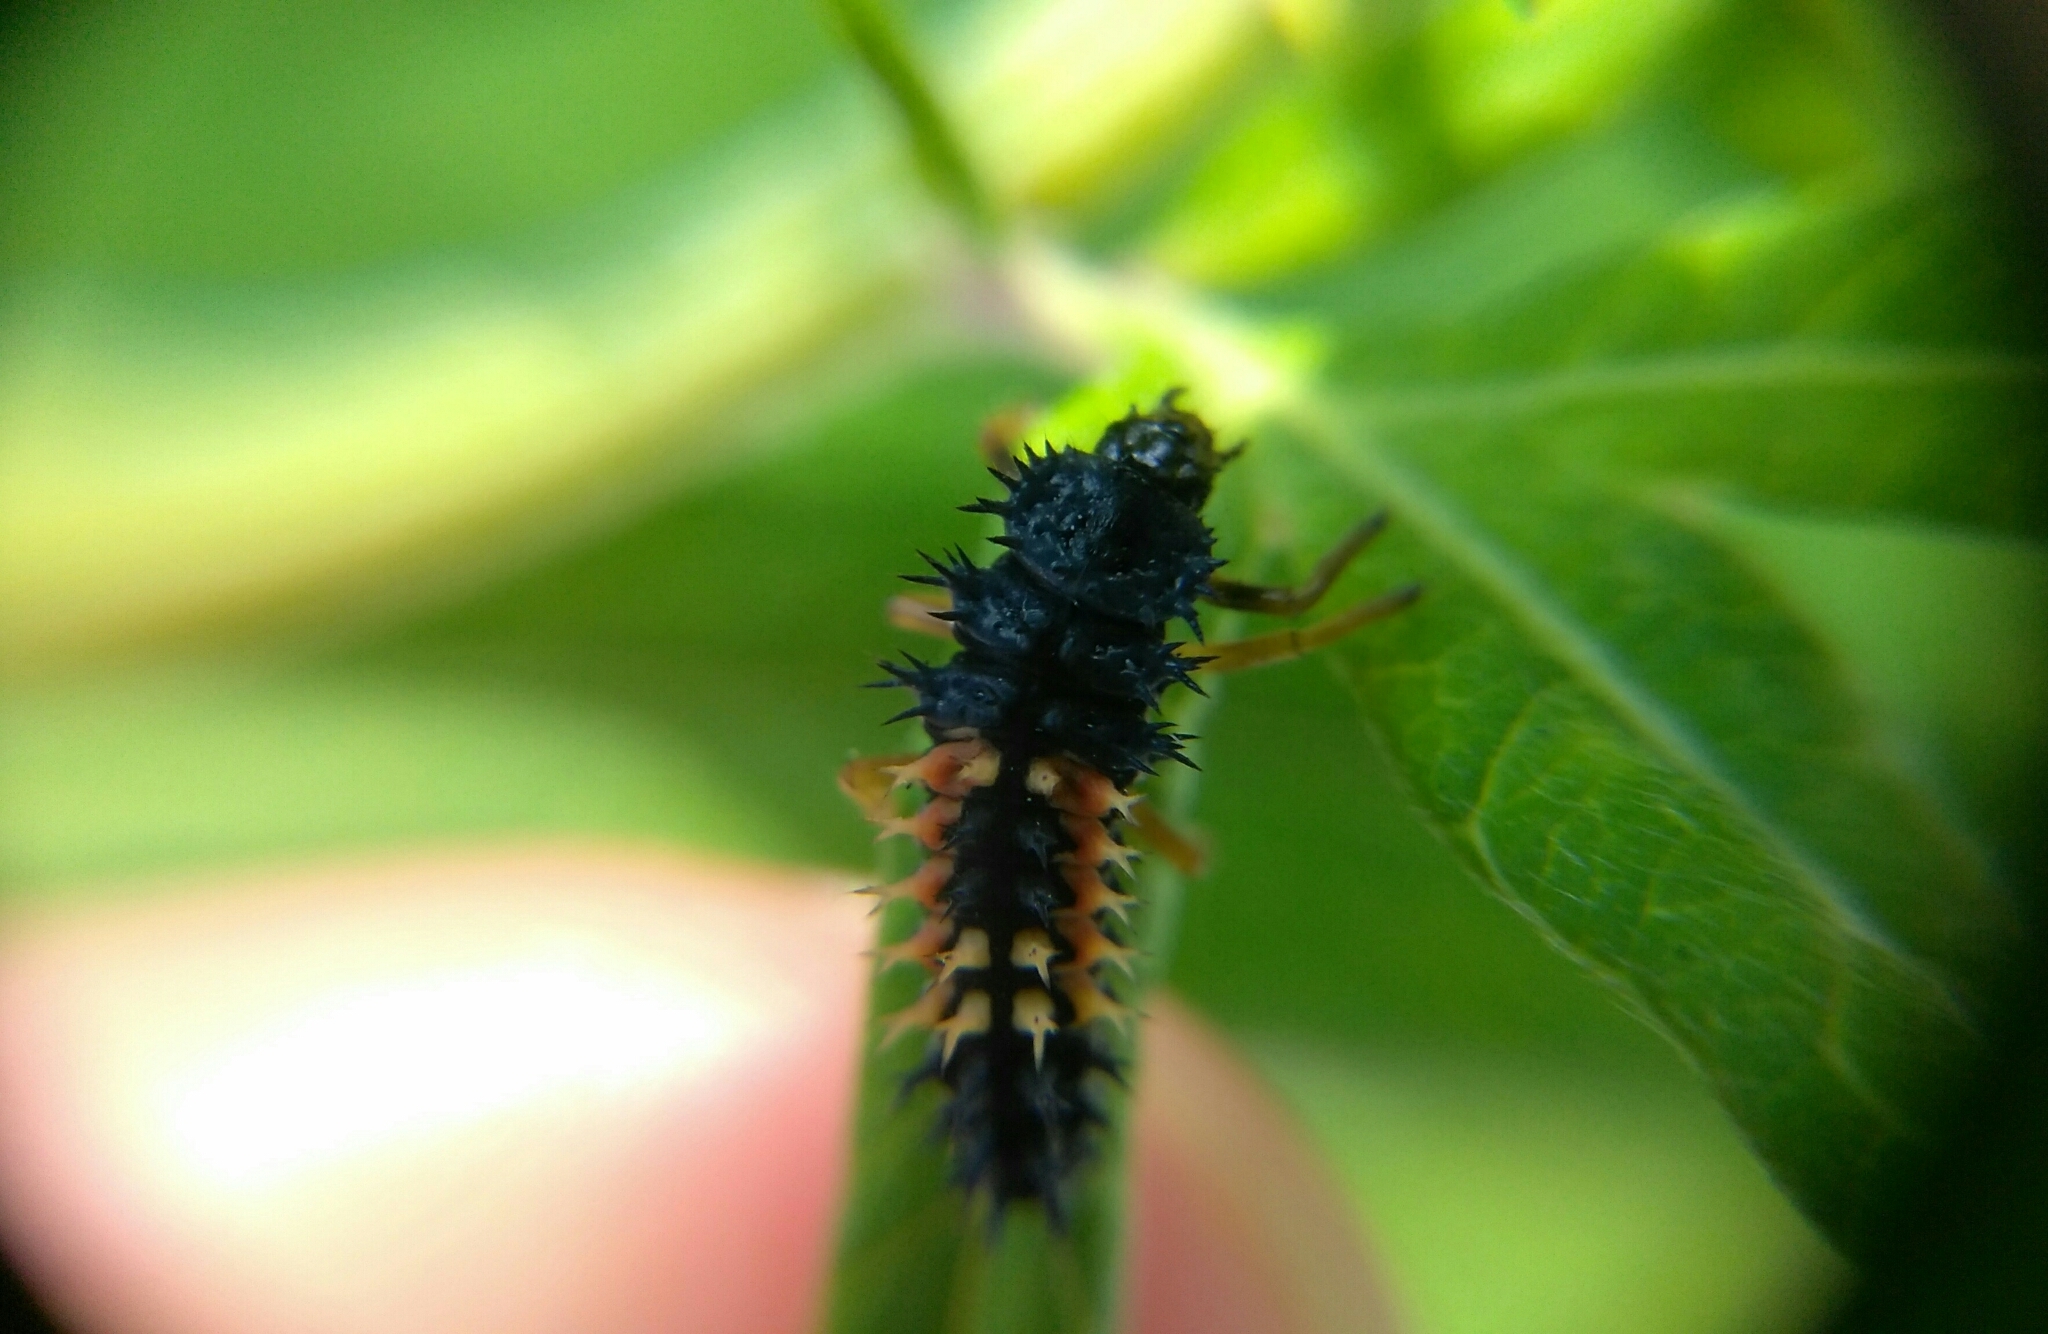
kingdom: Animalia
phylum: Arthropoda
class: Insecta
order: Coleoptera
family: Coccinellidae
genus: Harmonia
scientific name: Harmonia axyridis
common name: Harlequin ladybird
